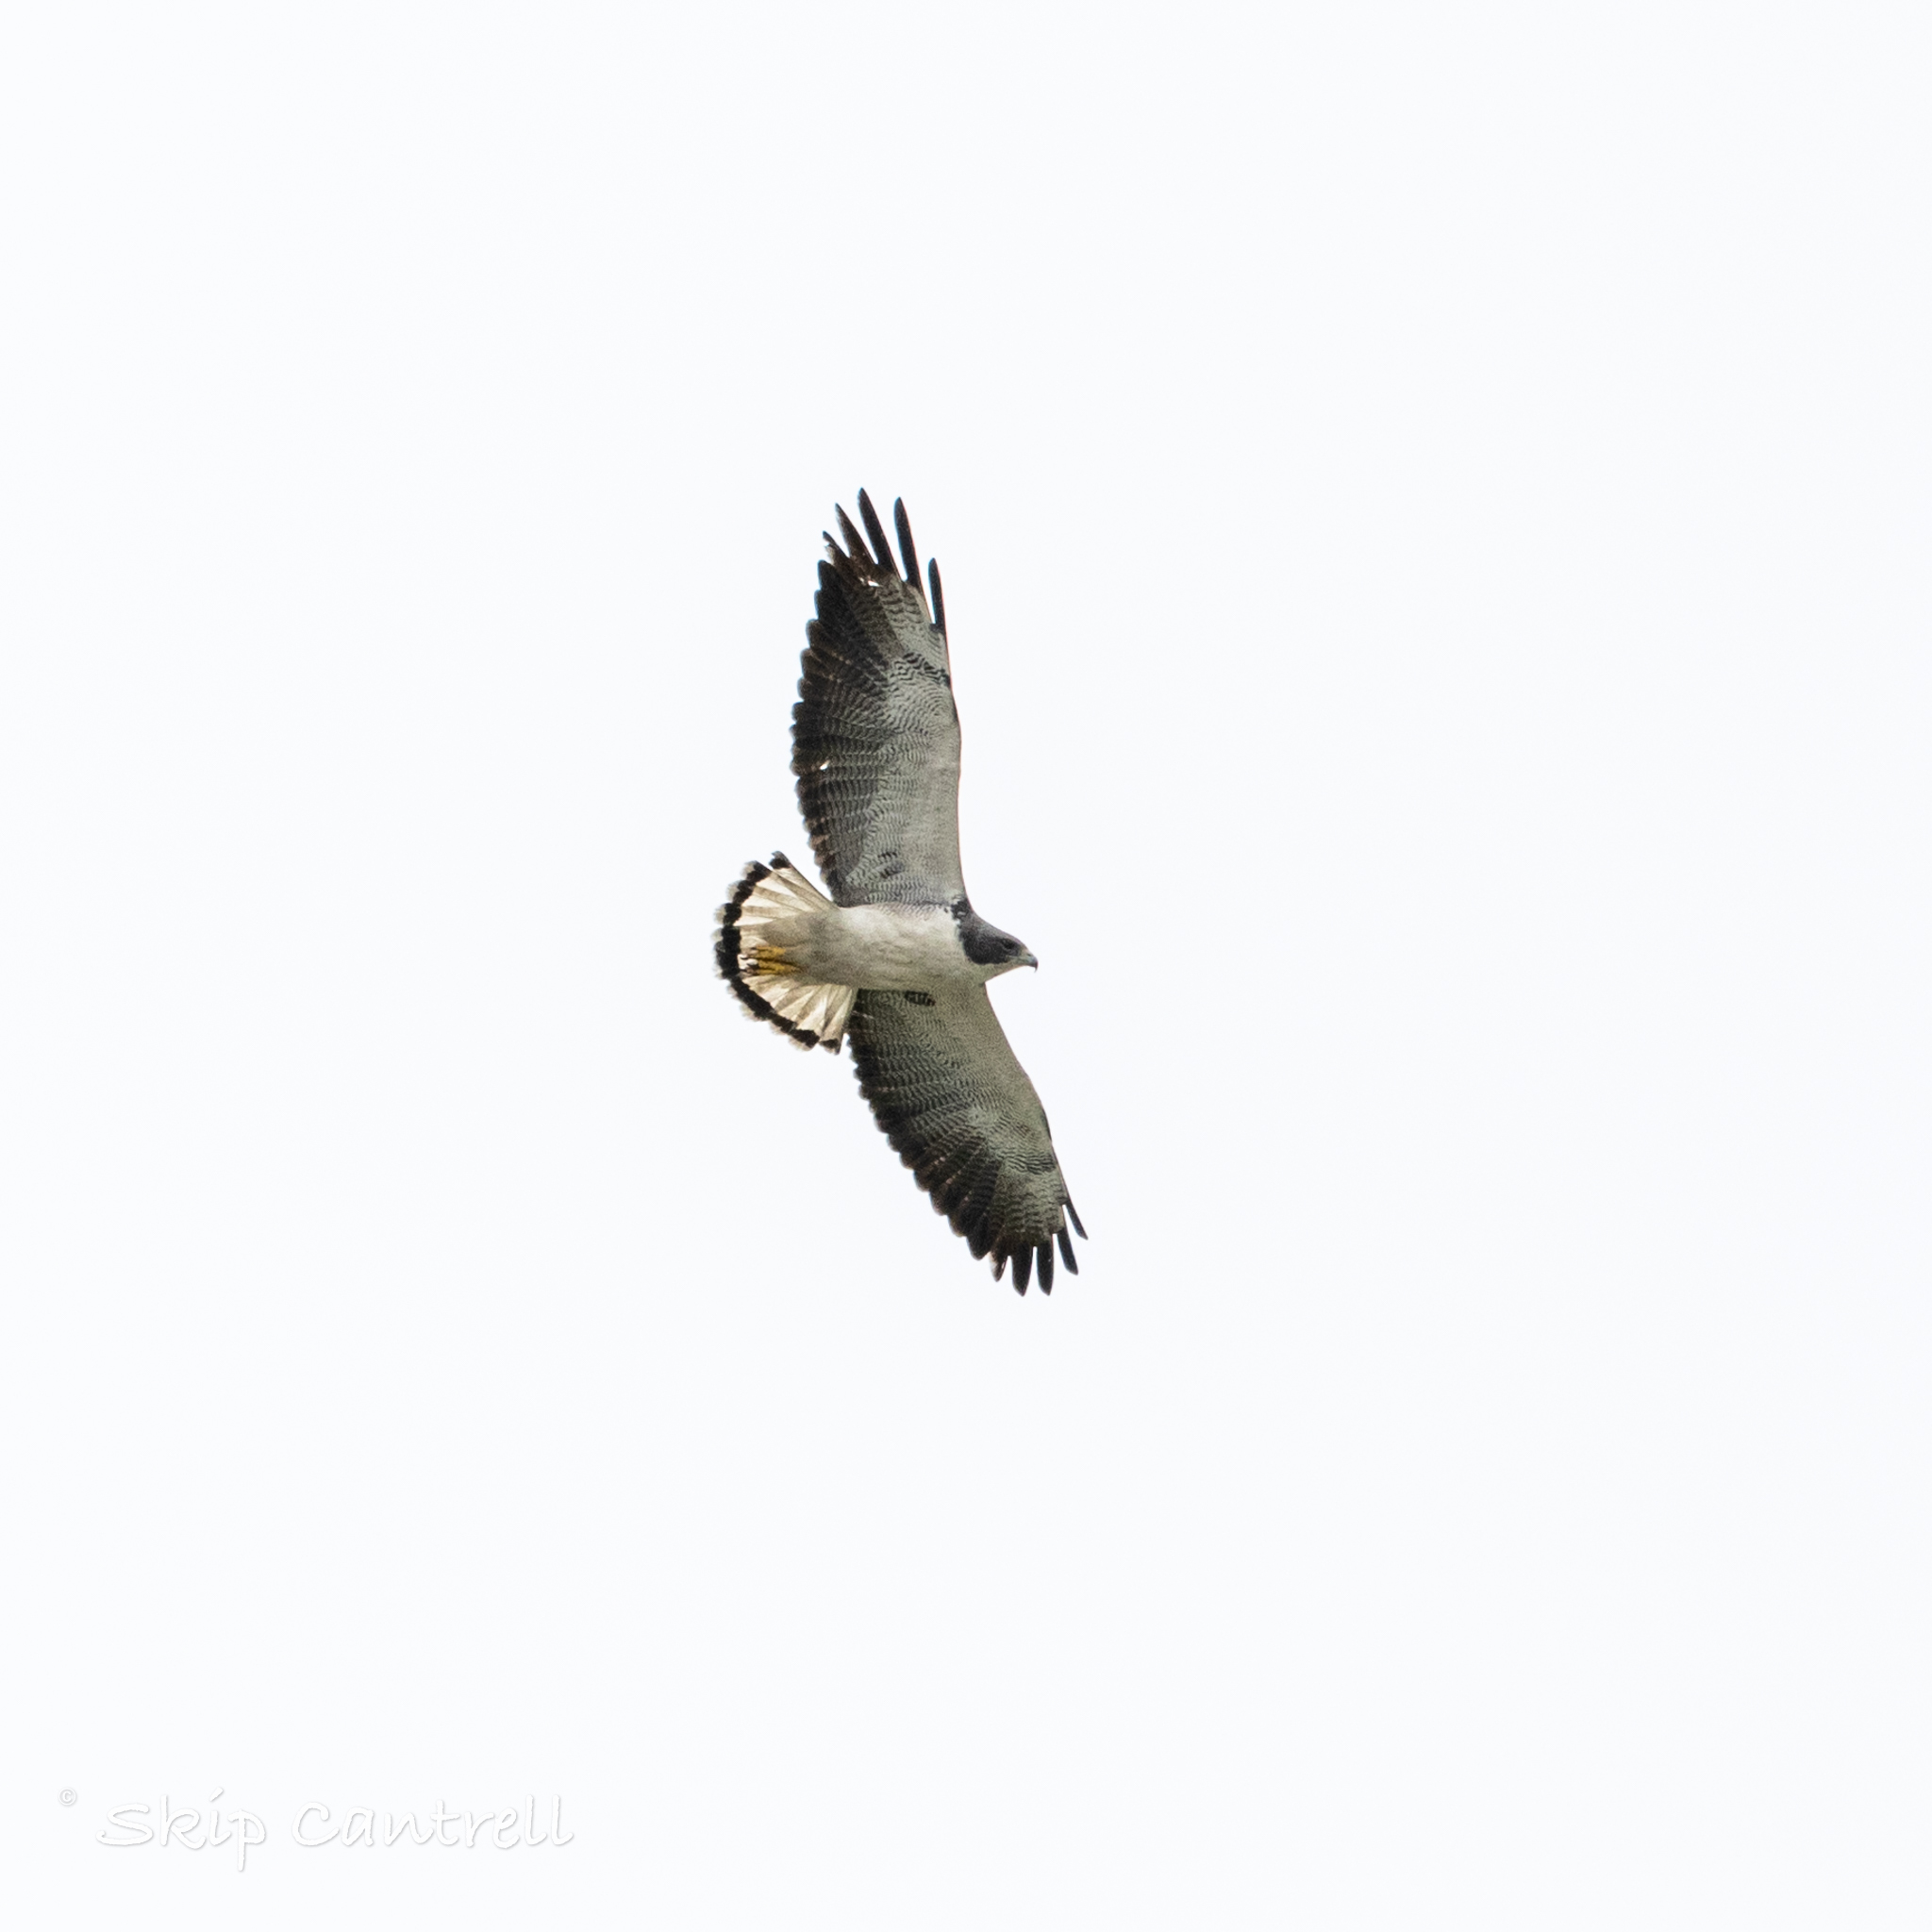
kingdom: Animalia
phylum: Chordata
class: Aves
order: Accipitriformes
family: Accipitridae
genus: Buteo
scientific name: Buteo albicaudatus
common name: White-tailed hawk
